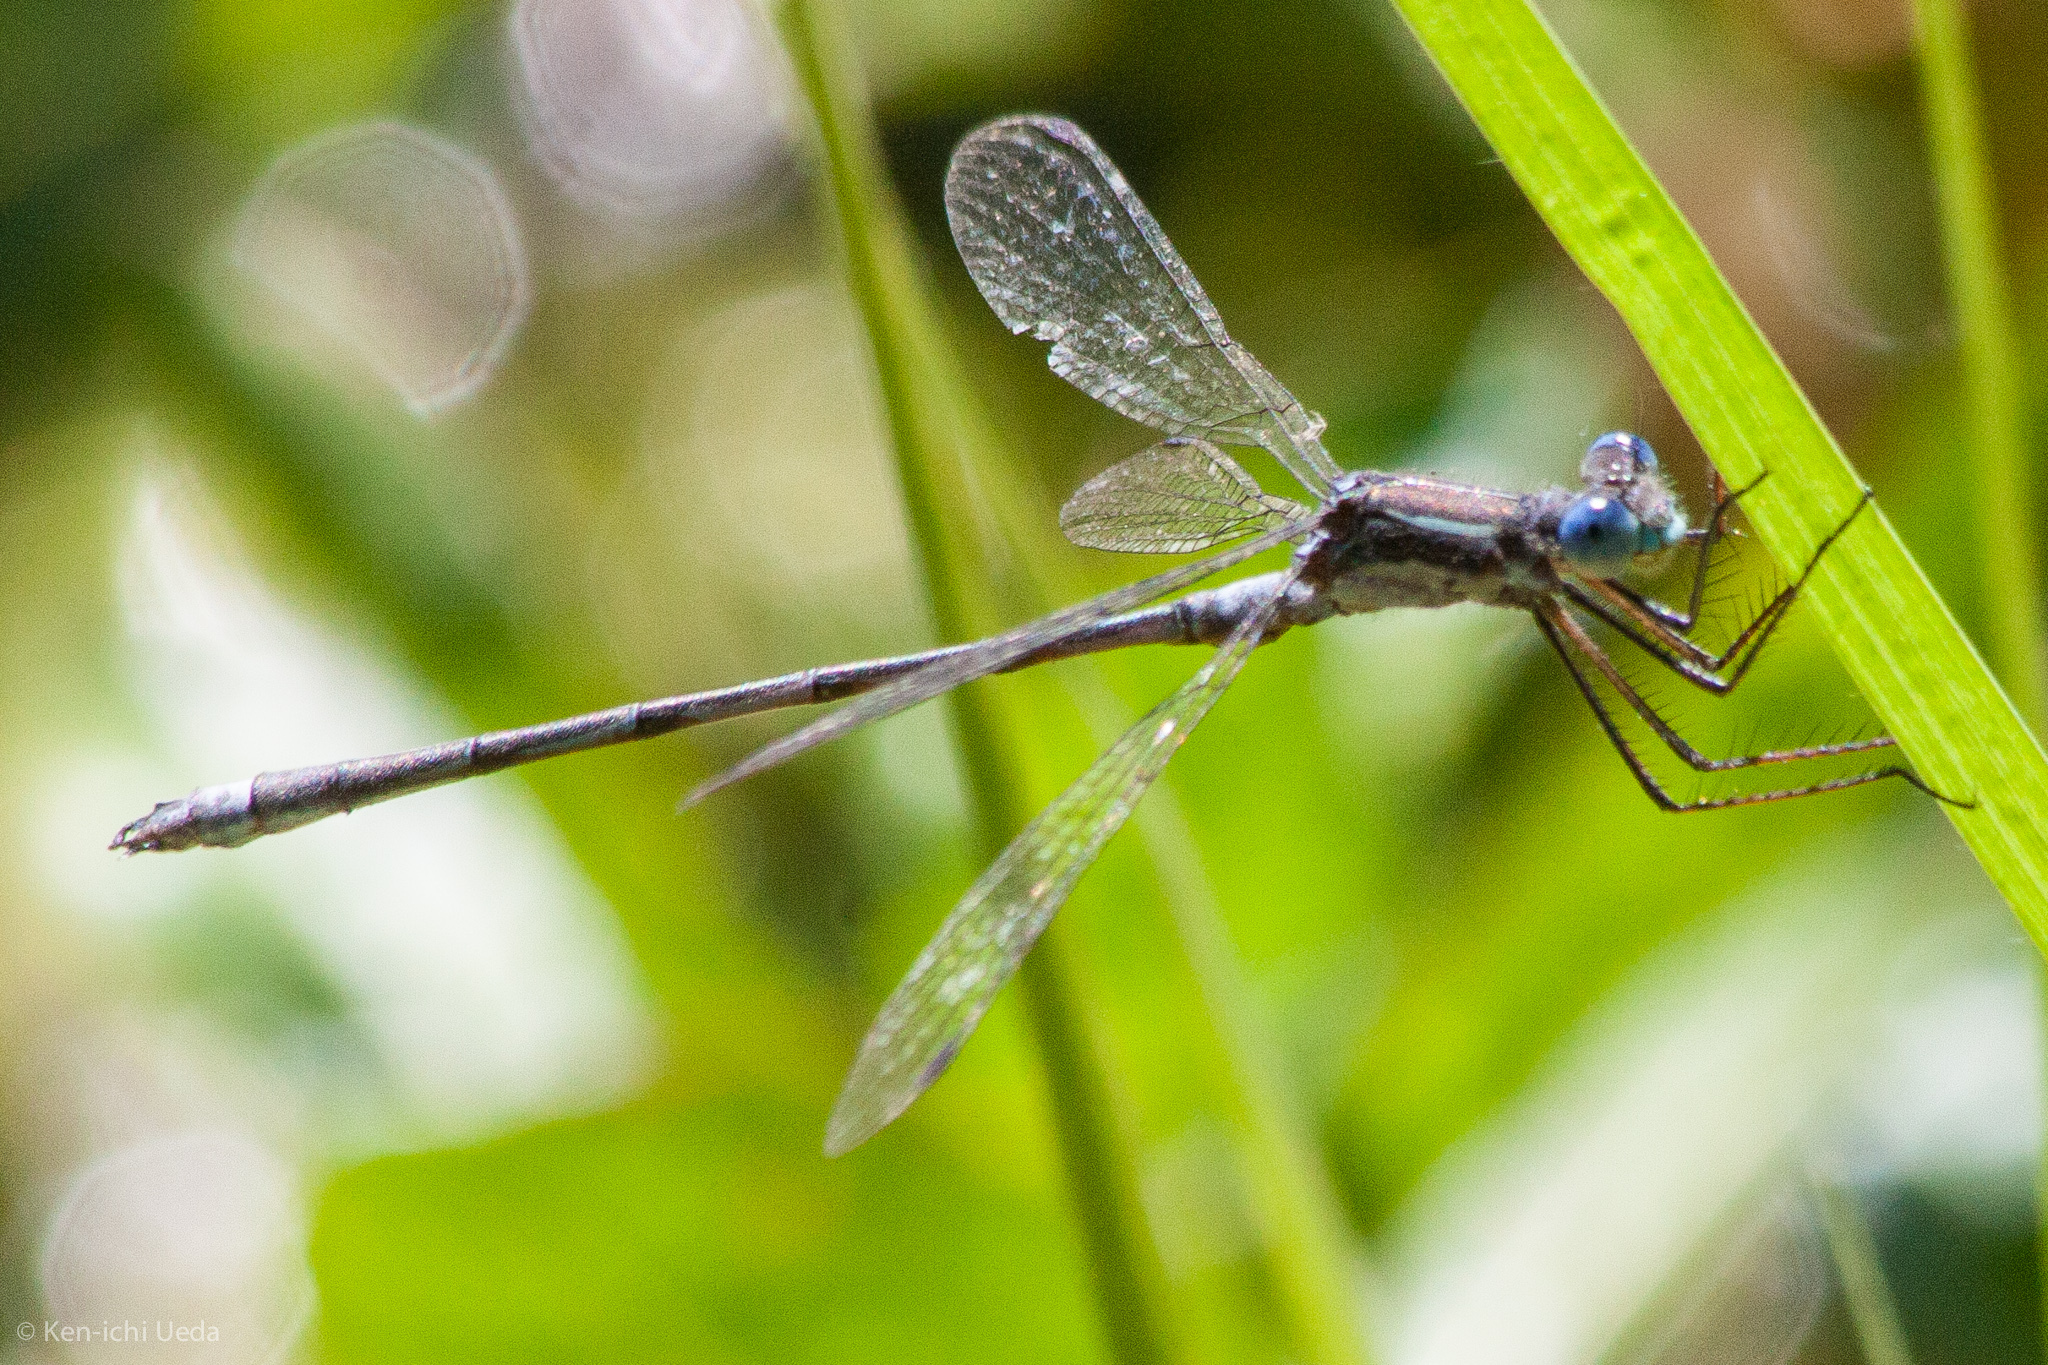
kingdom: Animalia
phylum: Arthropoda
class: Insecta
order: Odonata
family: Lestidae
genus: Lestes
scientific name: Lestes disjunctus
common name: Northern spreadwing
